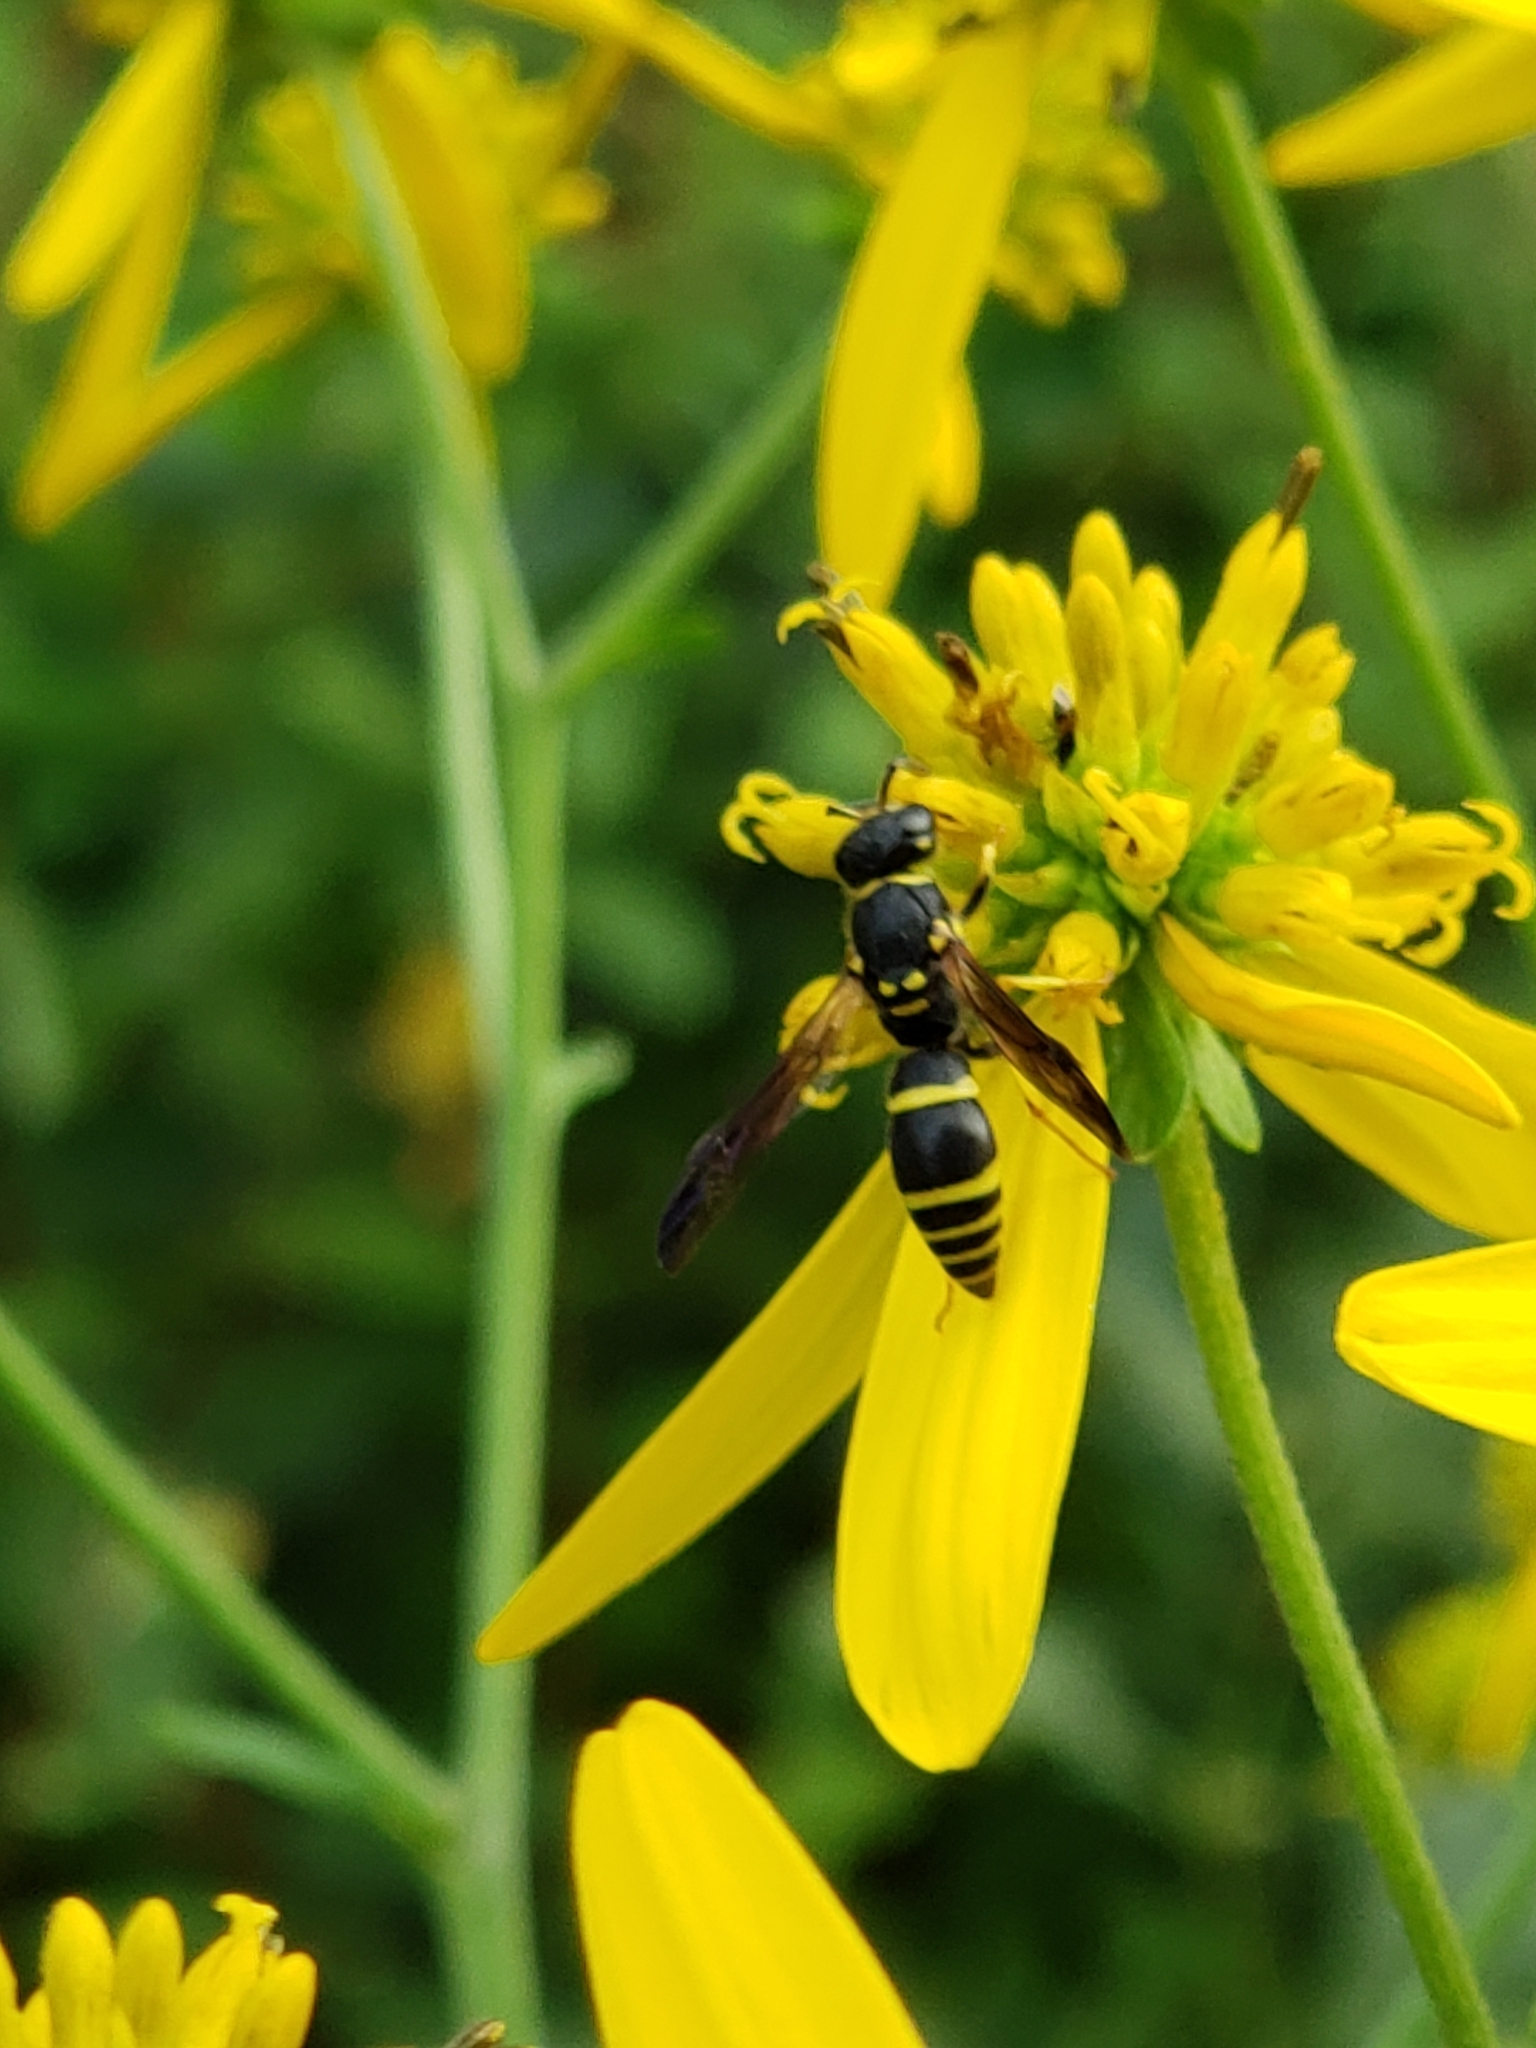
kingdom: Animalia
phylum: Arthropoda
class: Insecta
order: Hymenoptera
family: Vespidae
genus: Ancistrocerus
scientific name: Ancistrocerus adiabatus
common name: Bramble mason wasp
